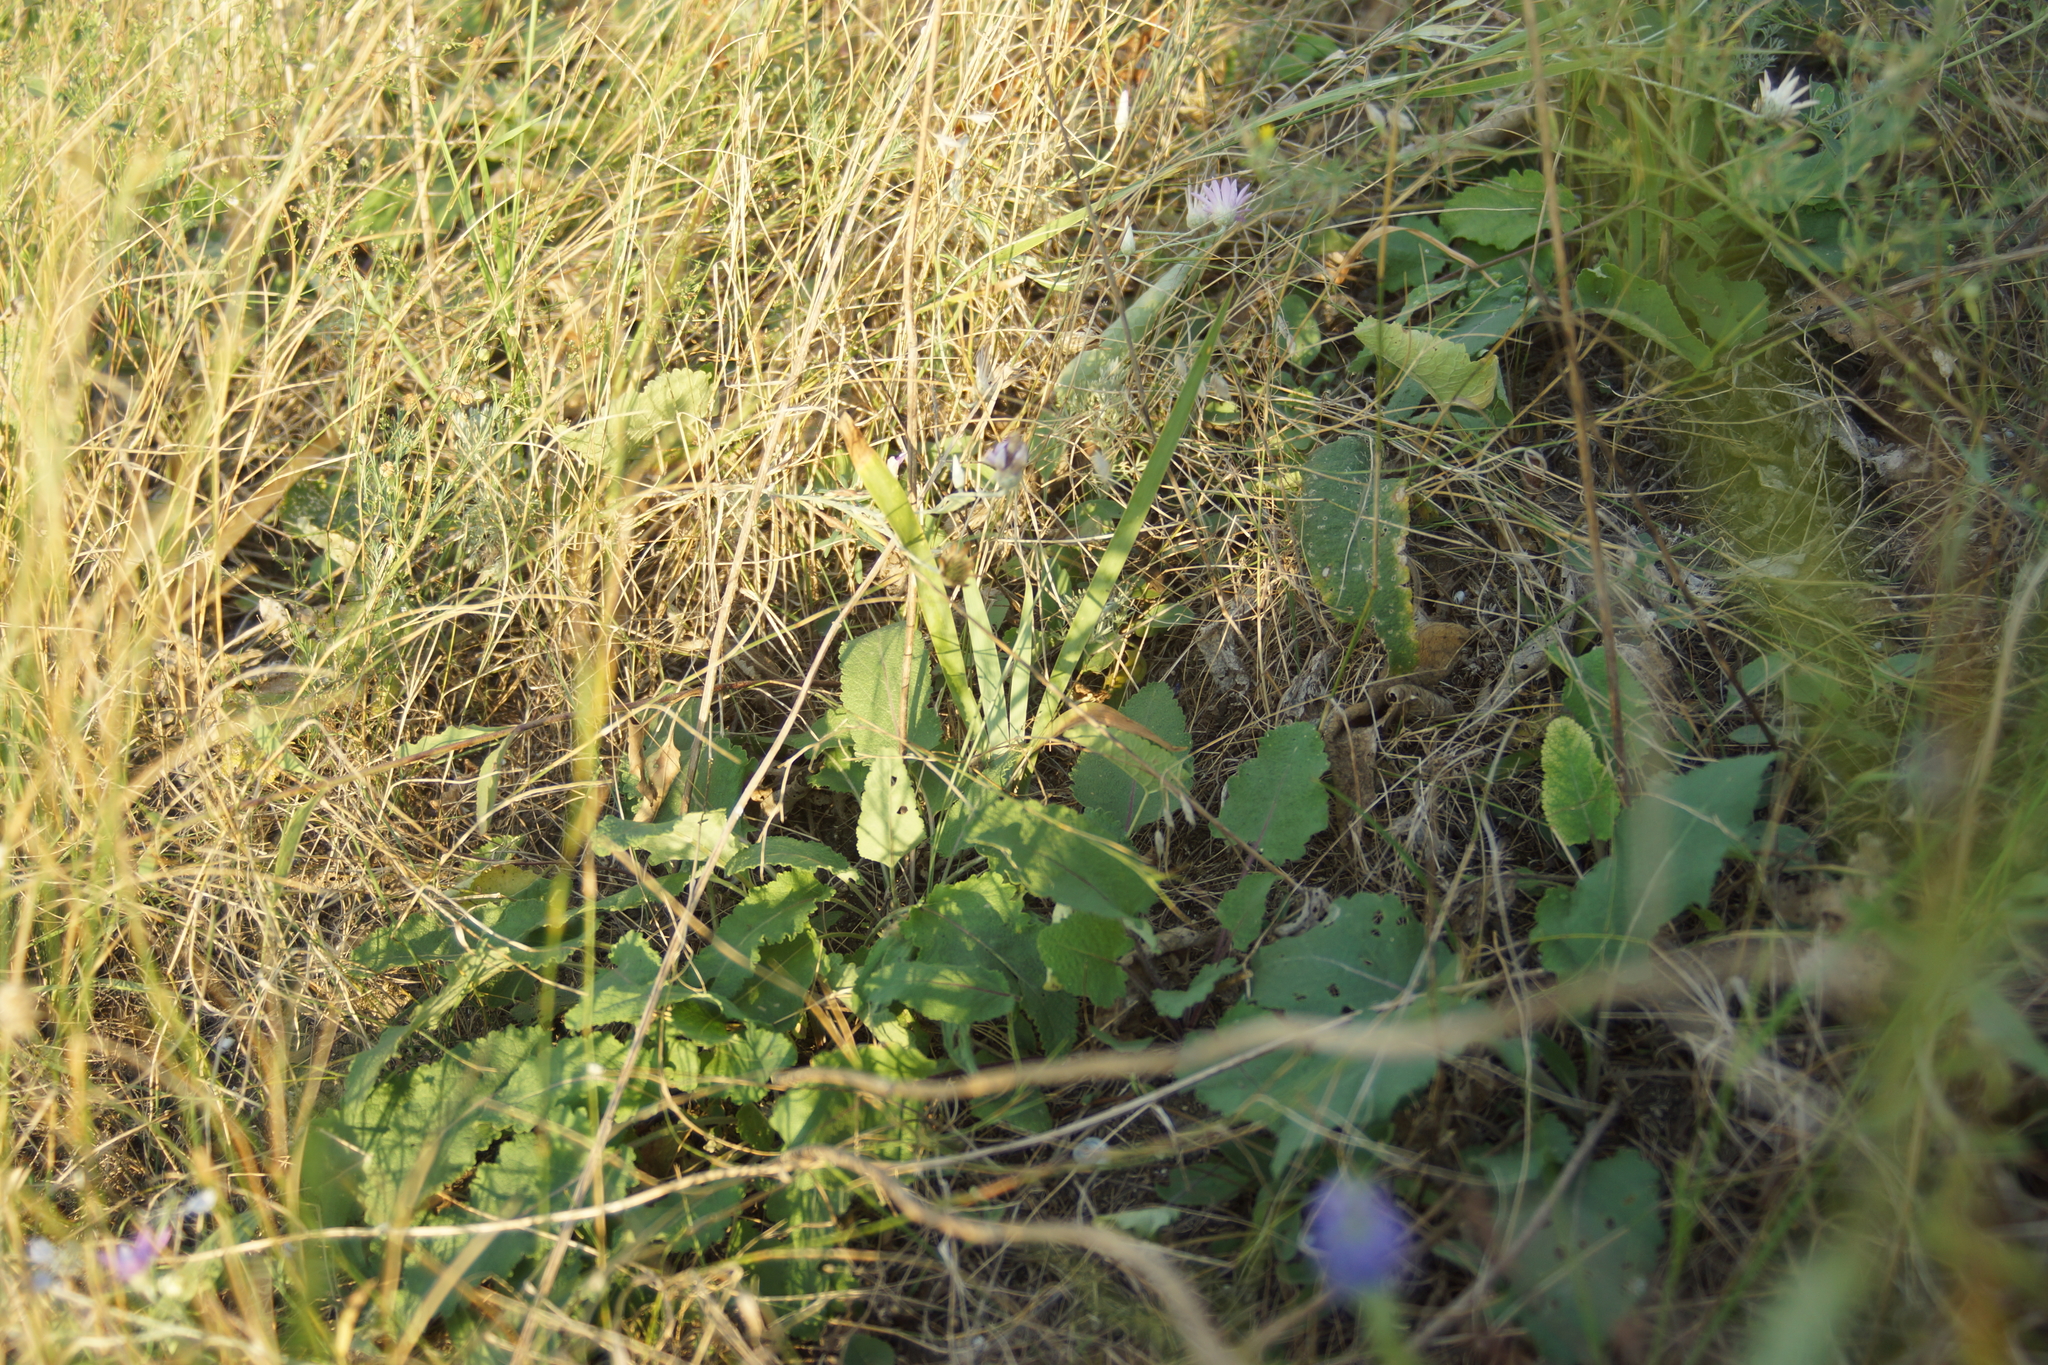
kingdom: Plantae
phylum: Tracheophyta
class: Liliopsida
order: Asparagales
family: Iridaceae
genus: Iris
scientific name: Iris pumila
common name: Dwarf iris
